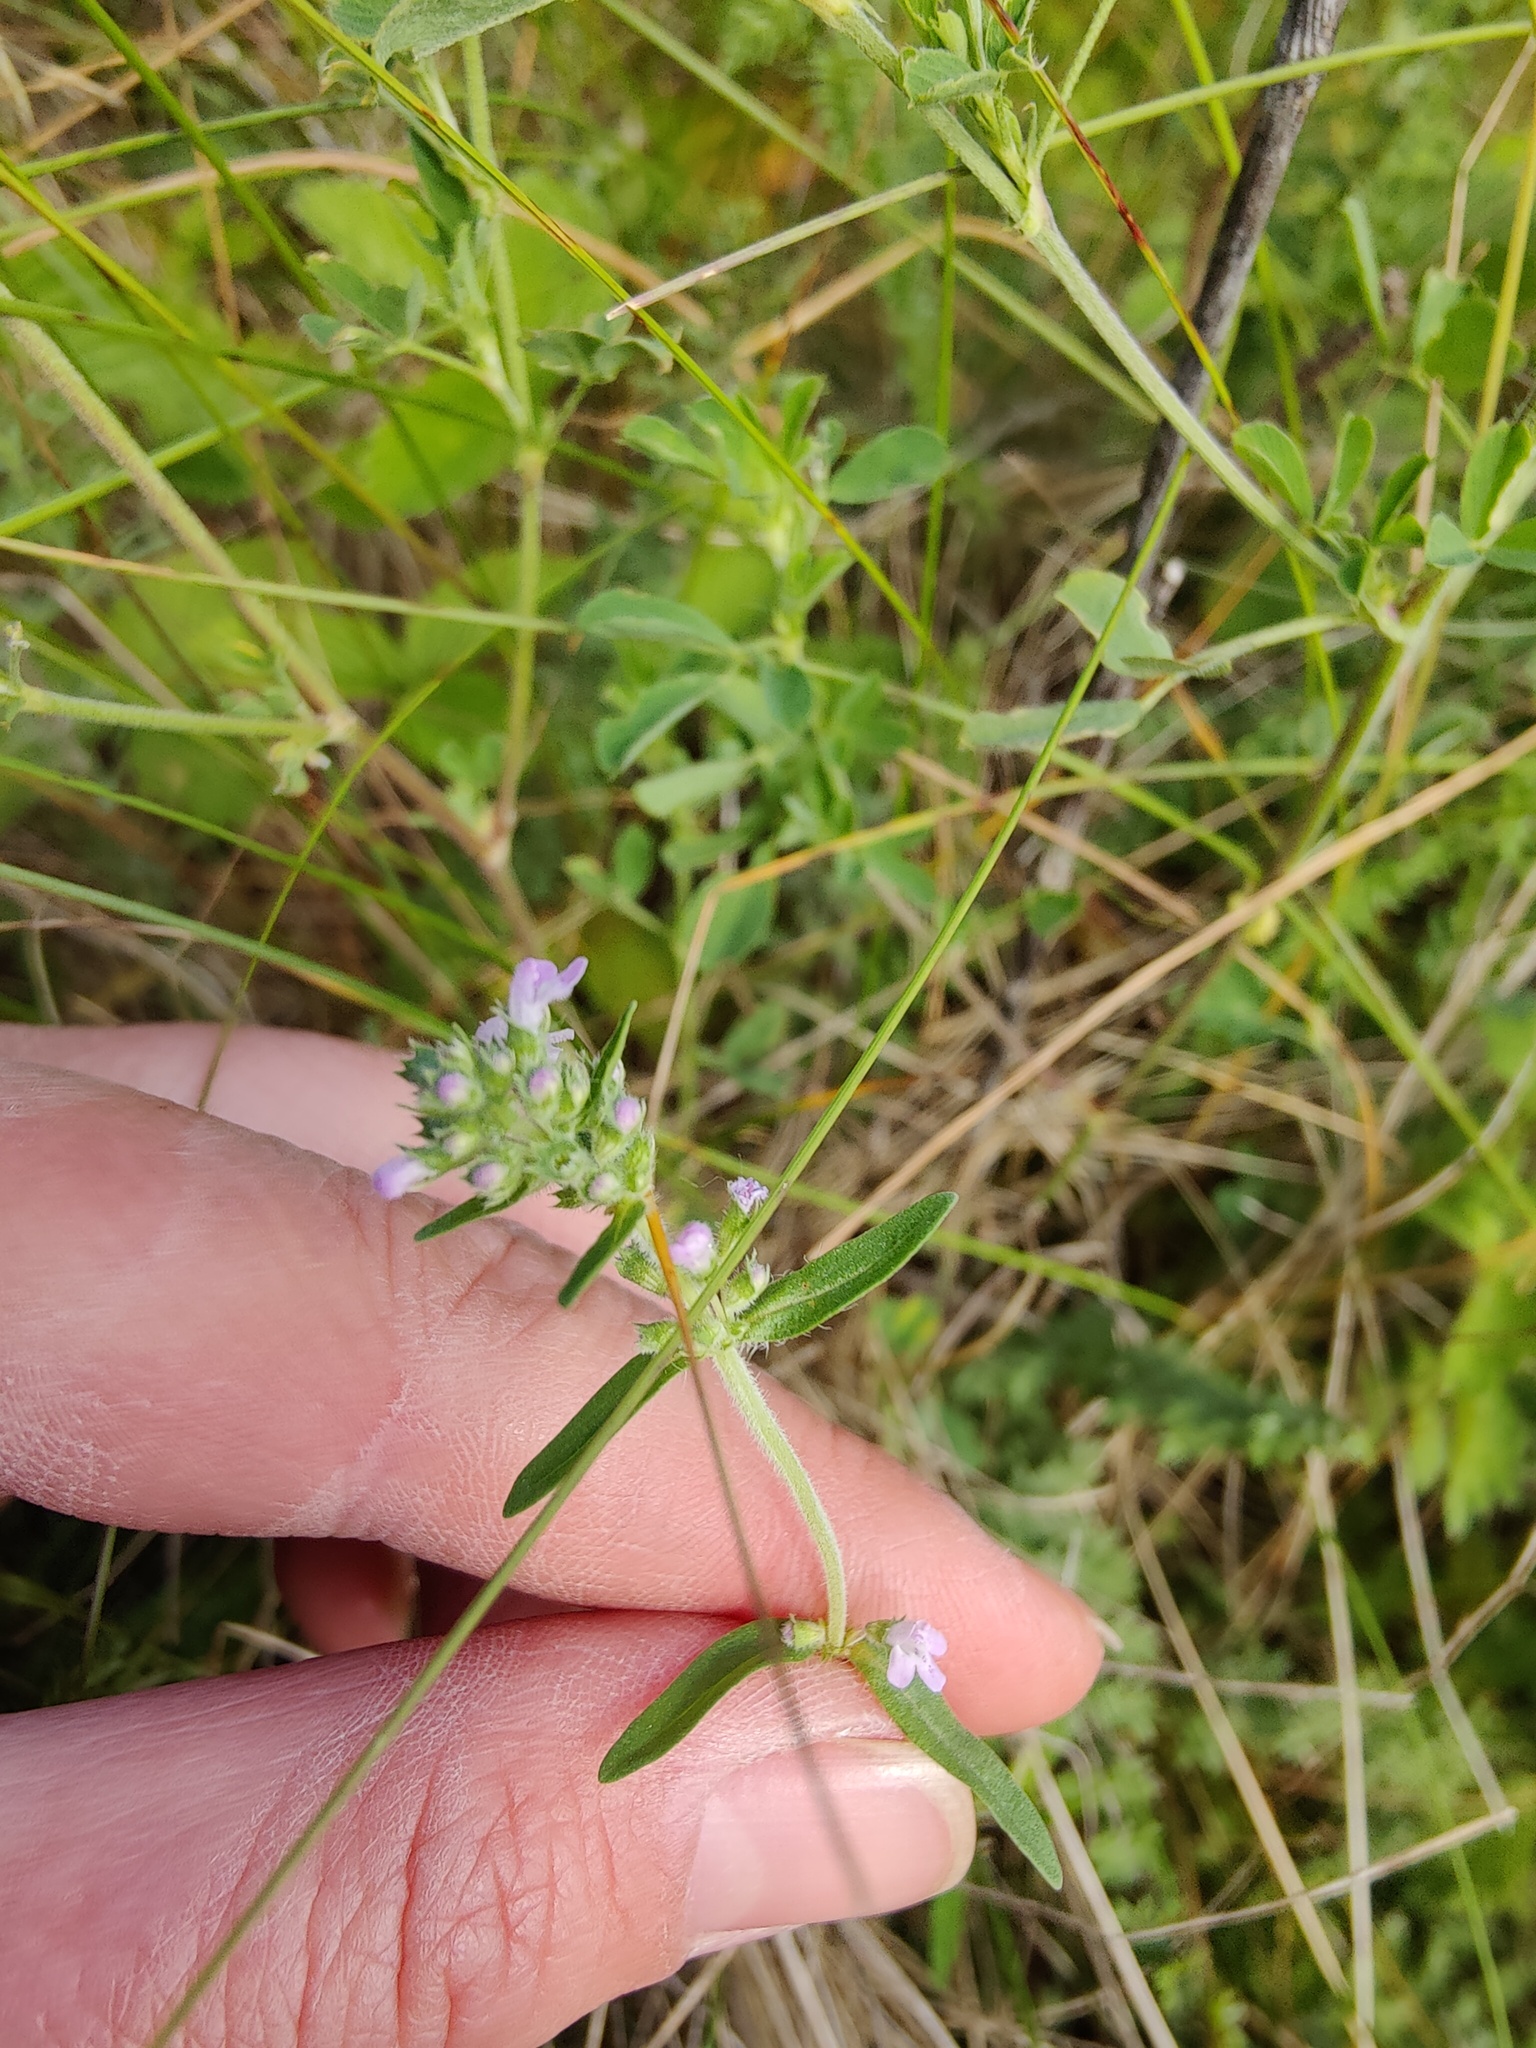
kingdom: Plantae
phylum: Tracheophyta
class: Magnoliopsida
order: Lamiales
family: Lamiaceae
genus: Thymus
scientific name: Thymus pannonicus
